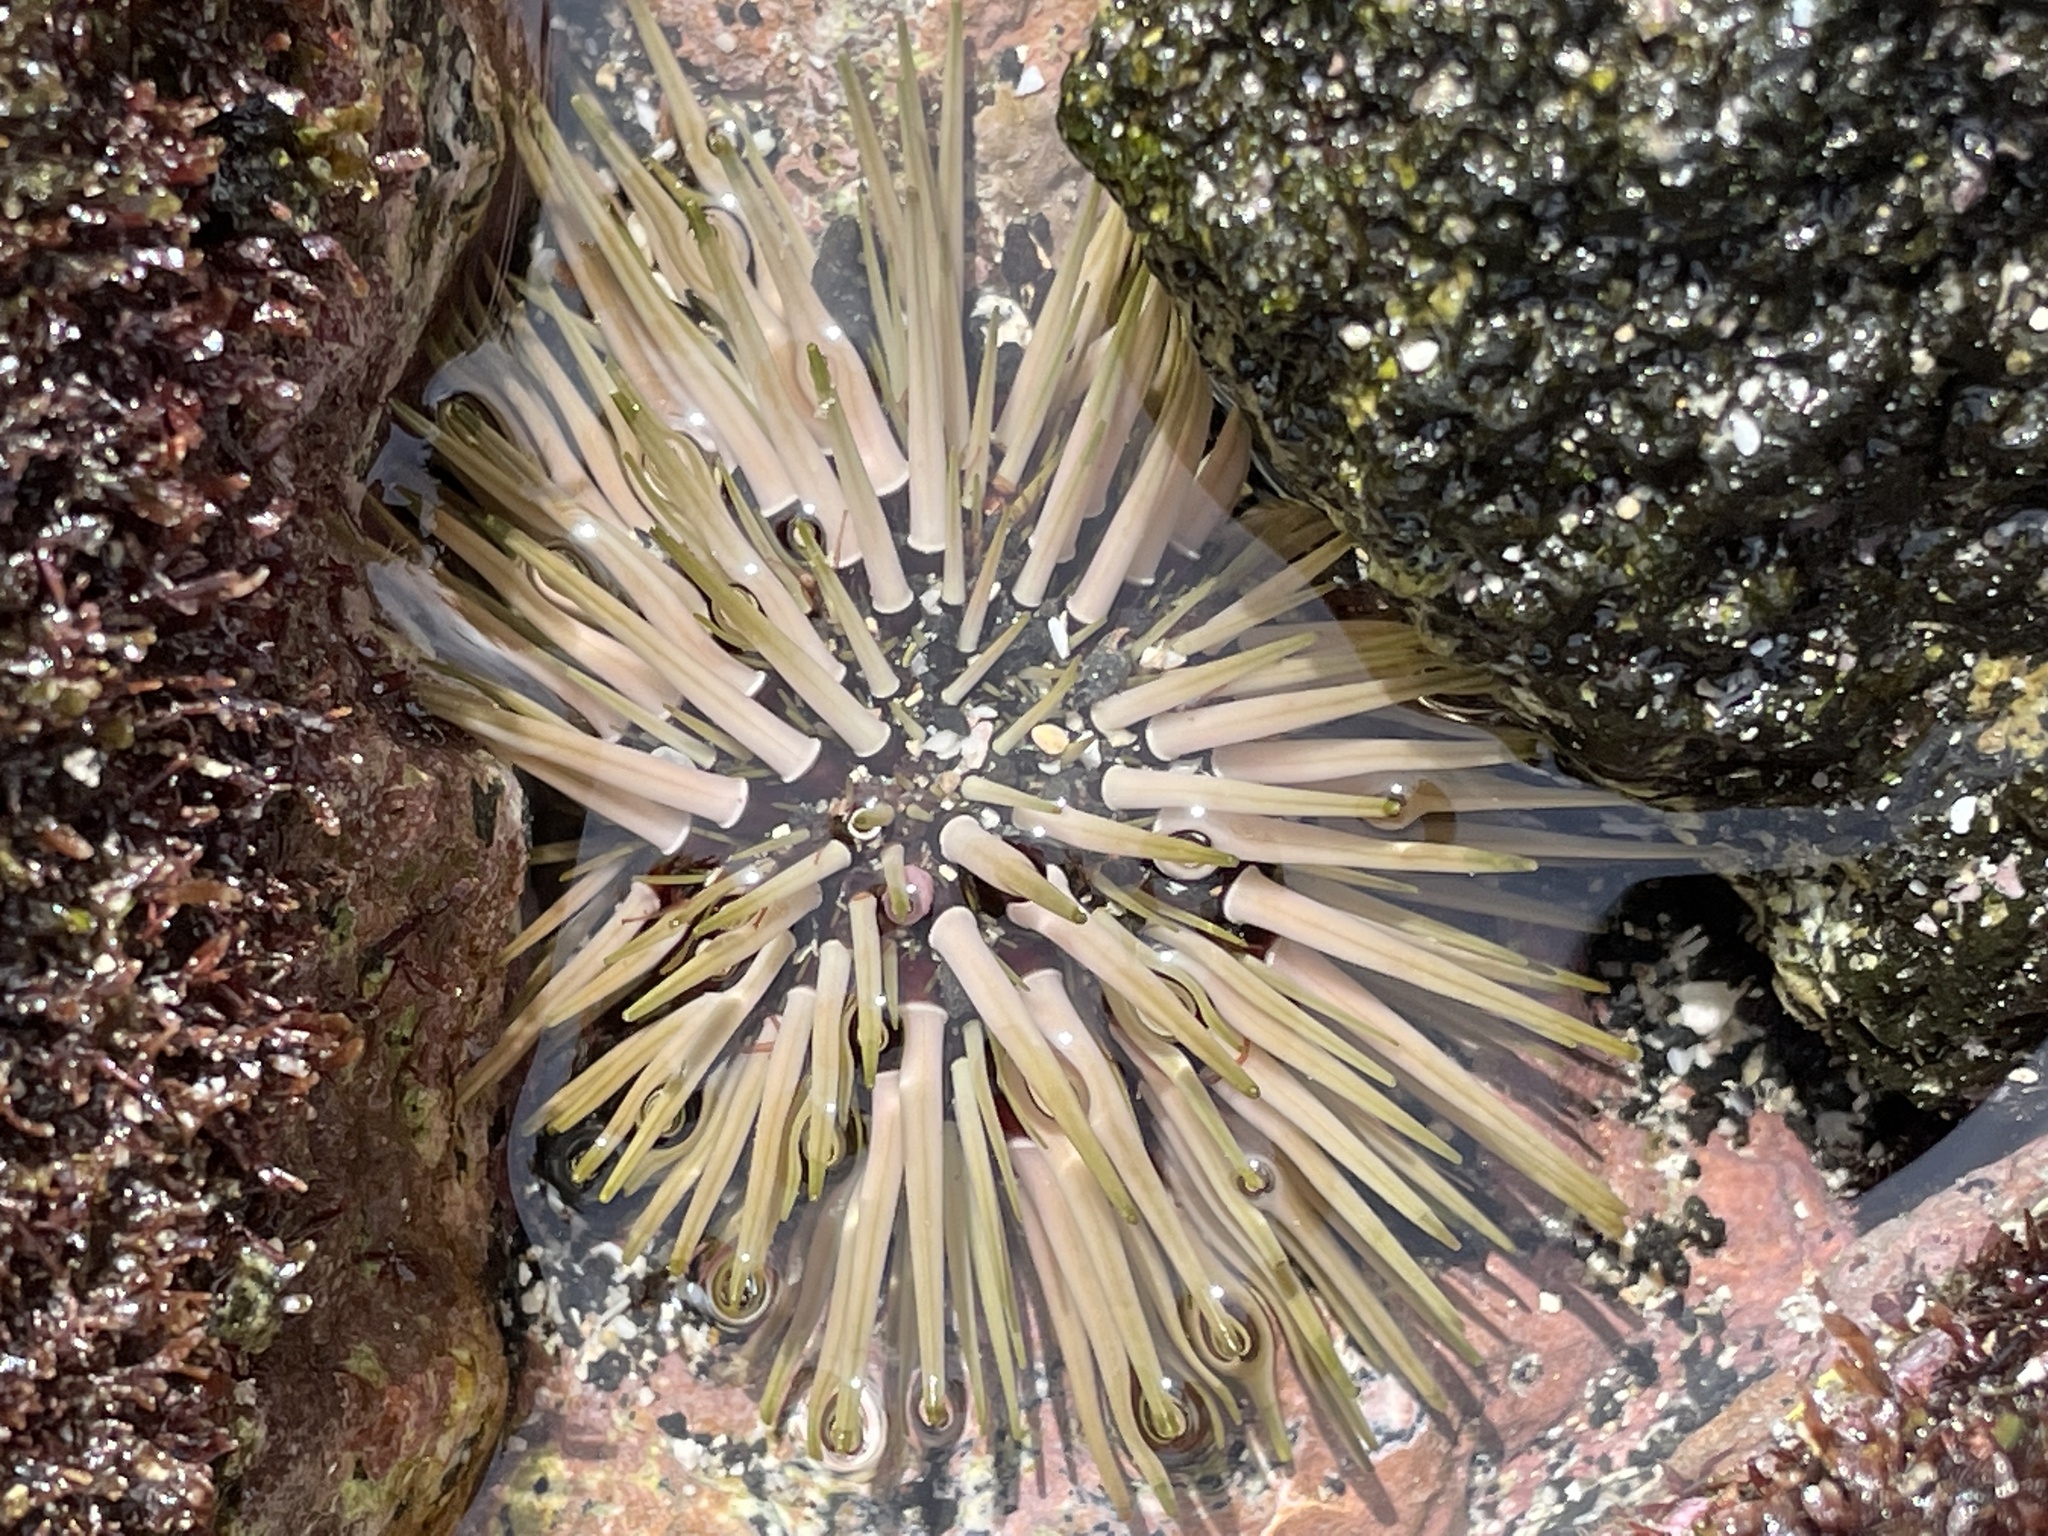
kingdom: Animalia
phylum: Echinodermata
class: Echinoidea
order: Camarodonta
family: Echinometridae
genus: Echinometra
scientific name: Echinometra mathaei
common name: Rock-boring urchin
